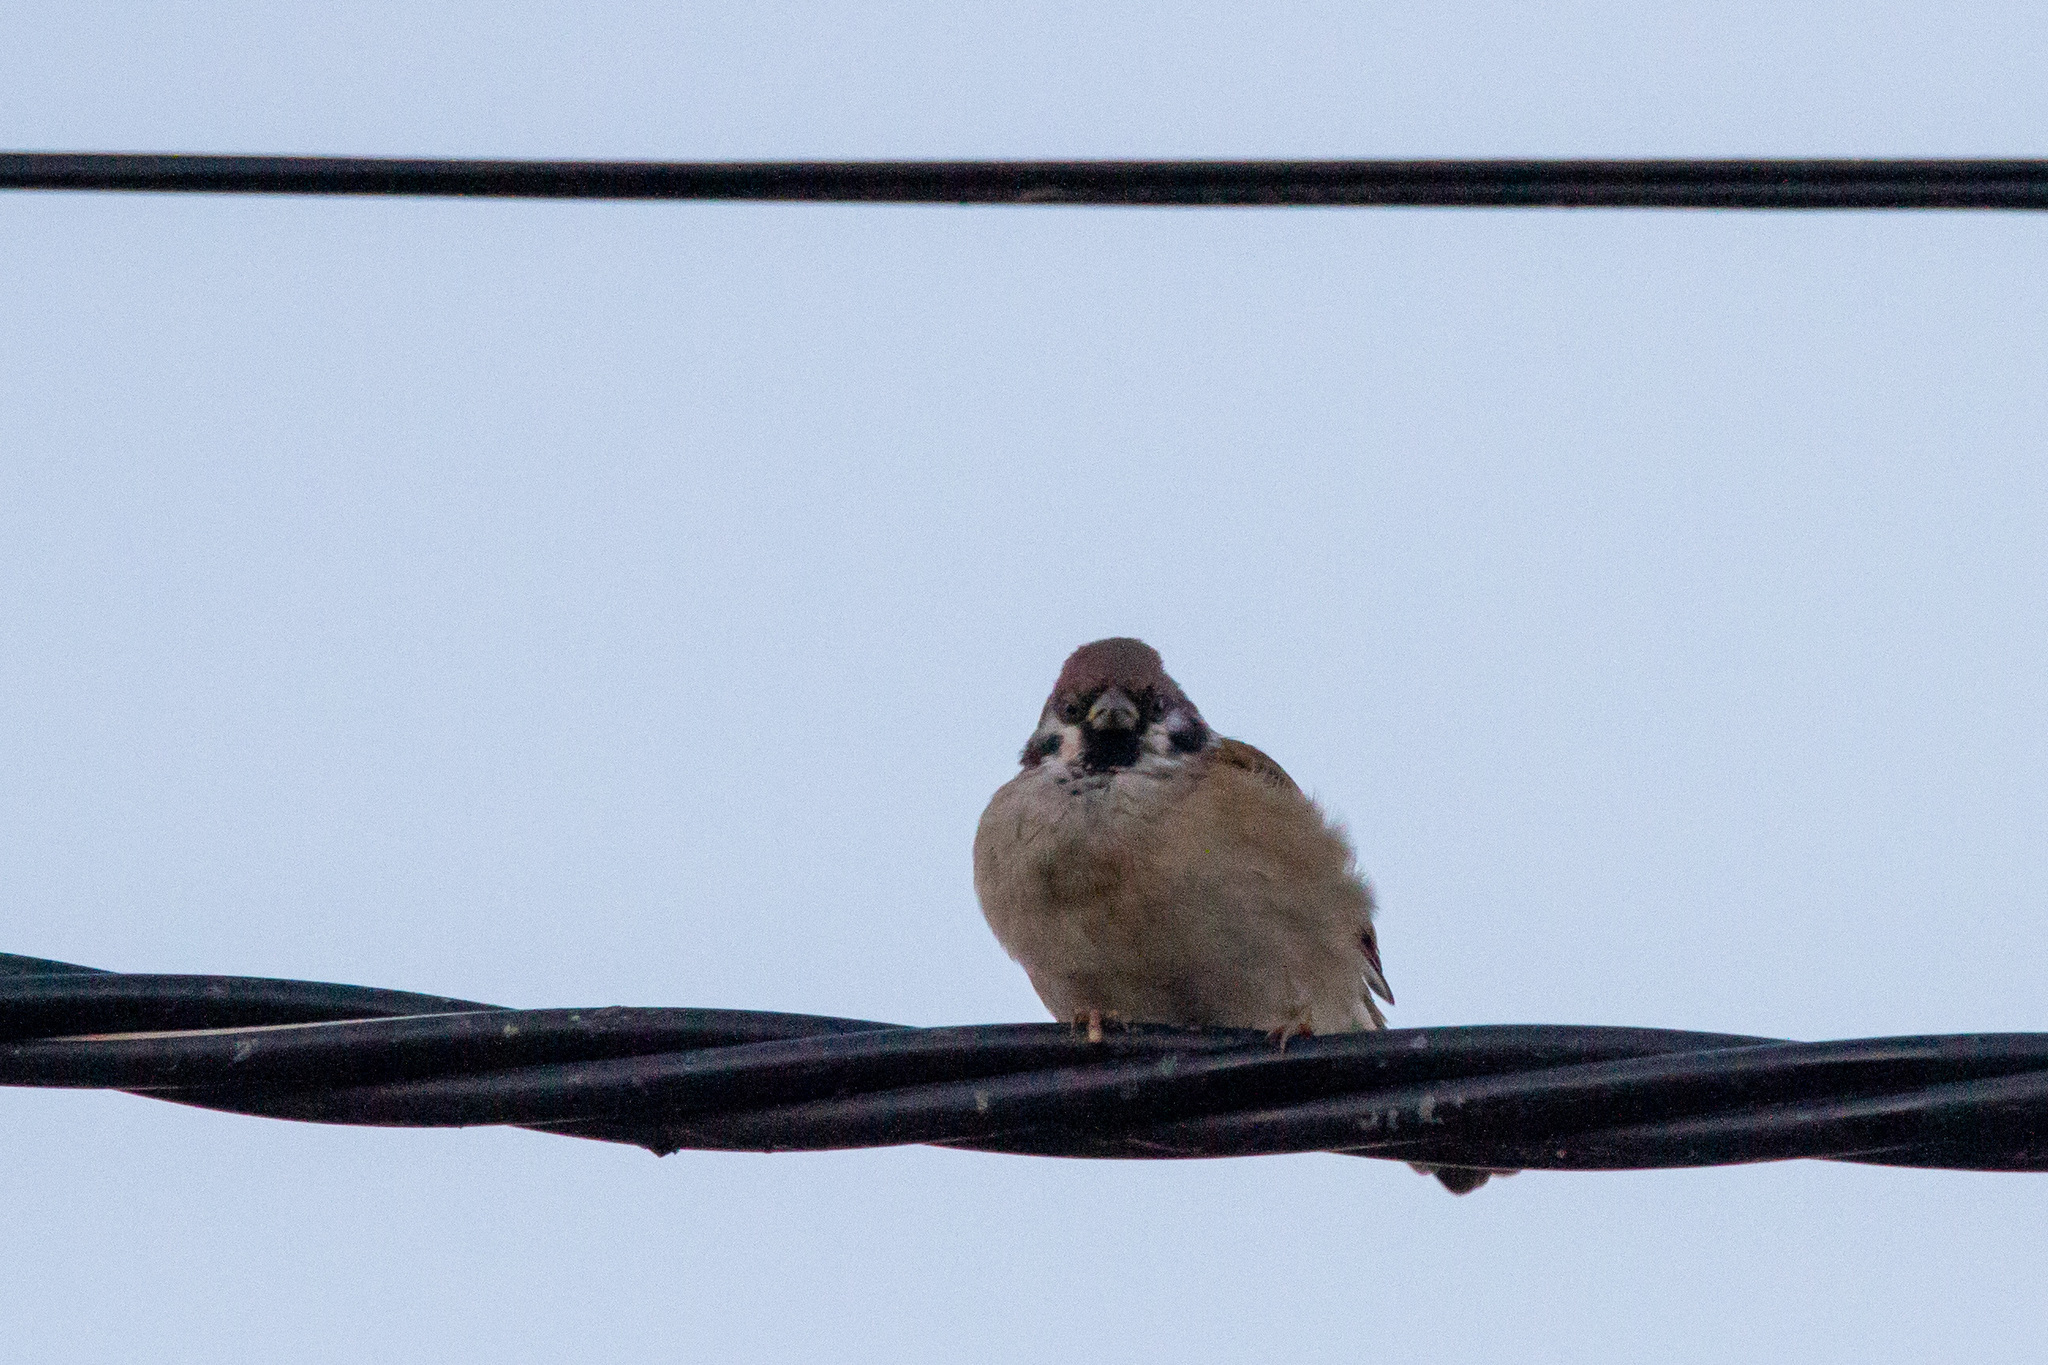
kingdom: Animalia
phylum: Chordata
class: Aves
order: Passeriformes
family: Passeridae
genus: Passer
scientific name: Passer montanus
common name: Eurasian tree sparrow
